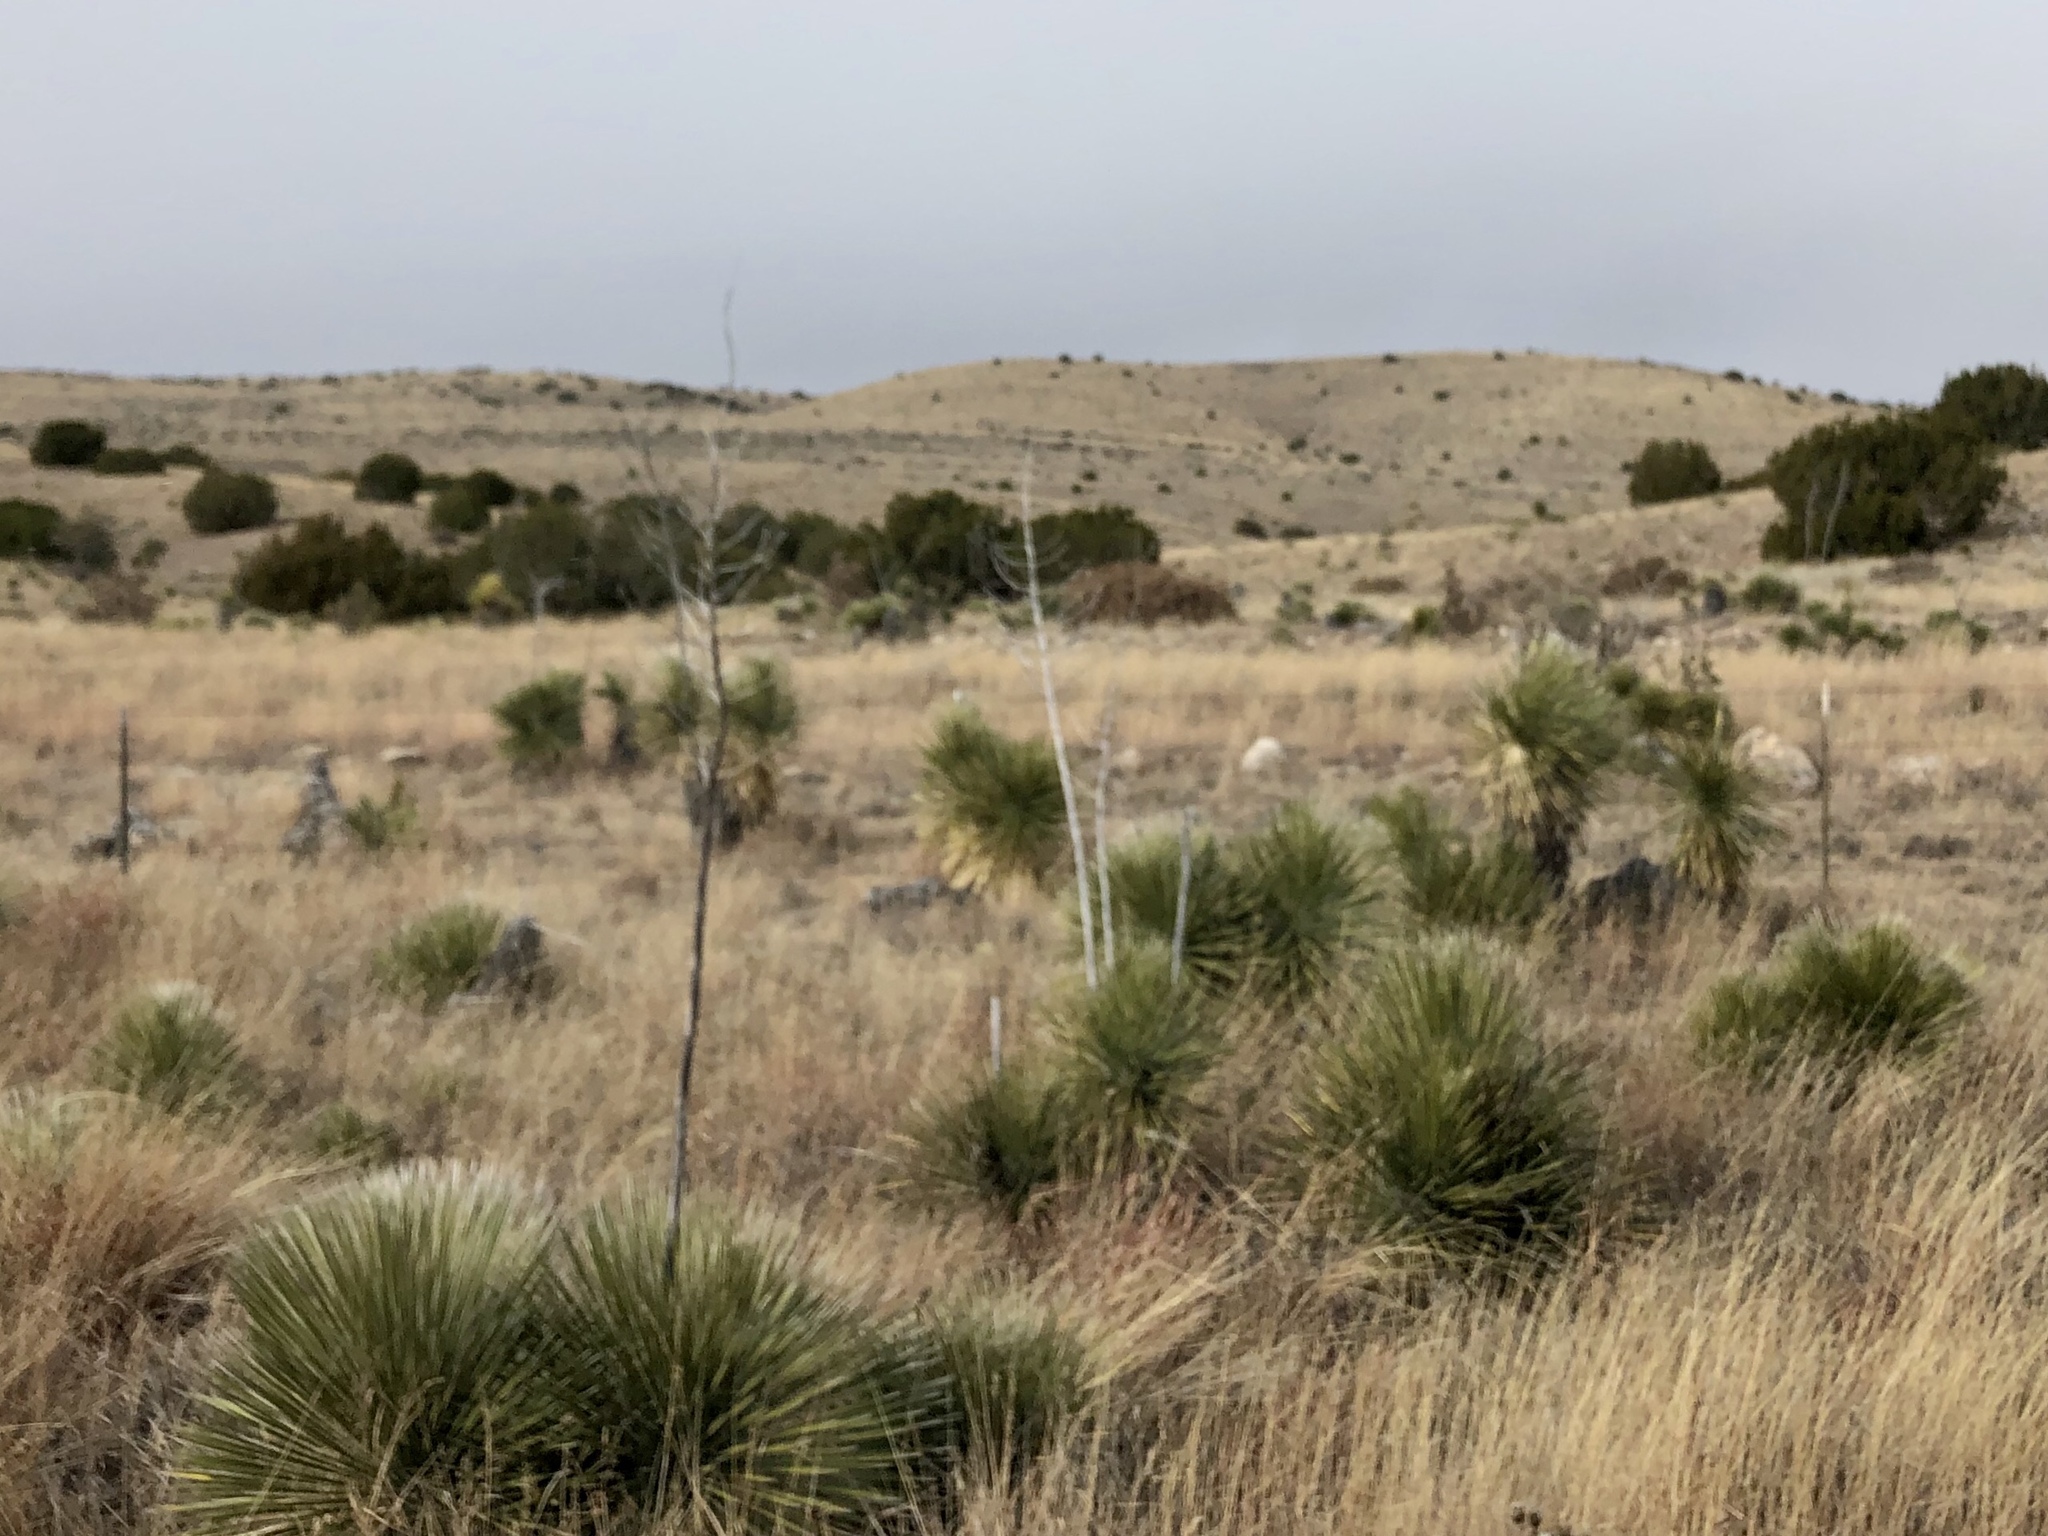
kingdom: Plantae
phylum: Tracheophyta
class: Liliopsida
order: Asparagales
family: Asparagaceae
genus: Yucca
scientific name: Yucca elata
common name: Palmella
